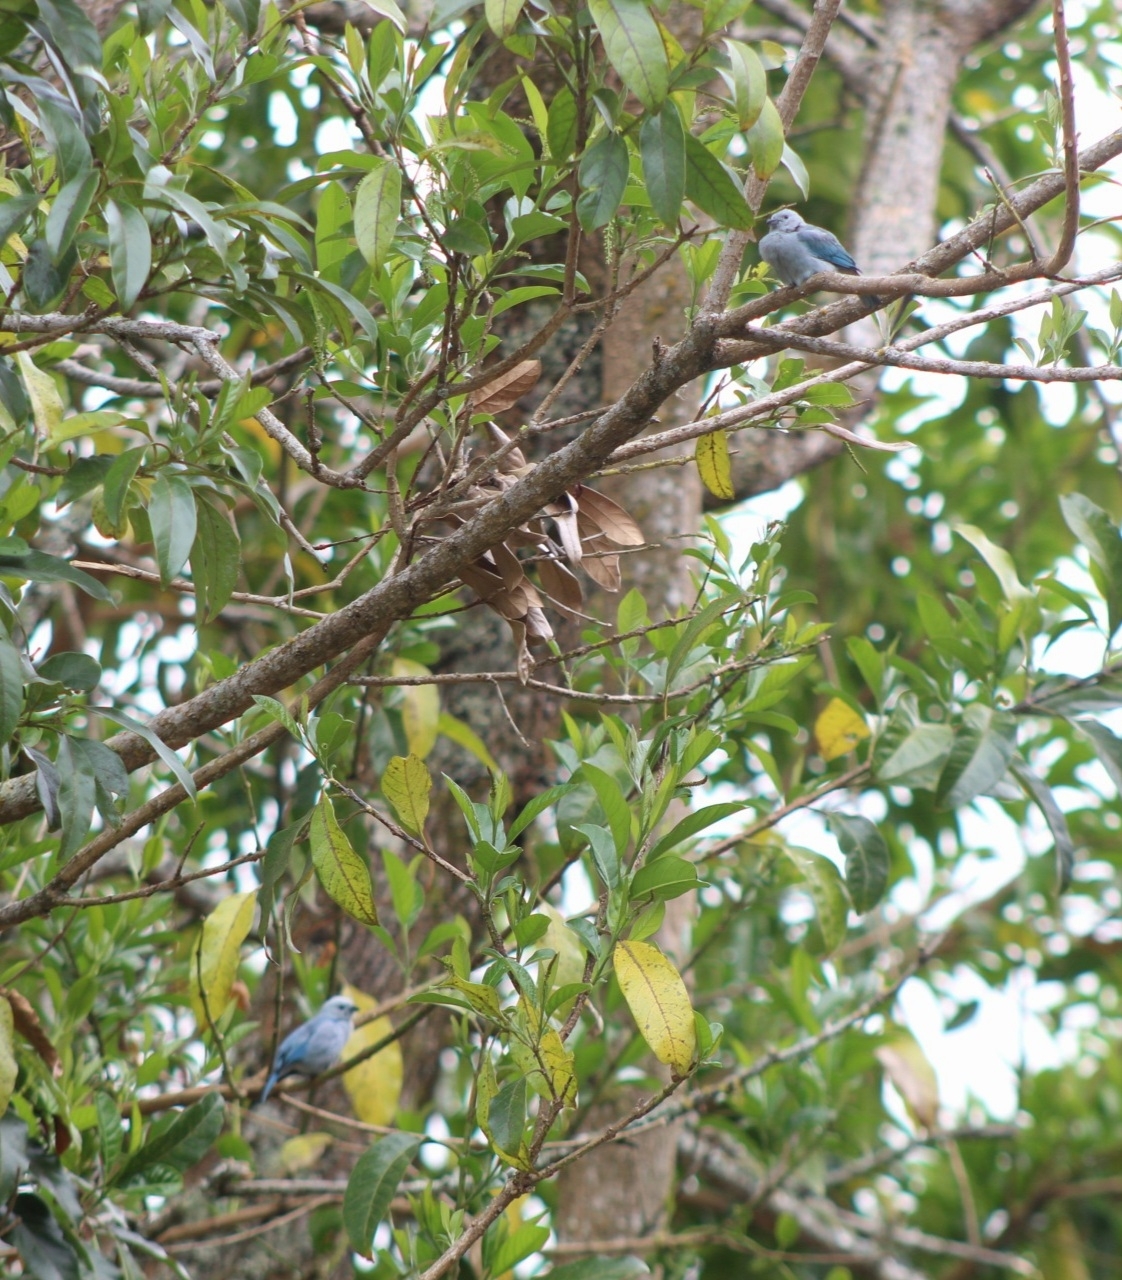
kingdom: Animalia
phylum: Chordata
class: Aves
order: Passeriformes
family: Thraupidae
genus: Thraupis
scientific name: Thraupis episcopus
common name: Blue-grey tanager
